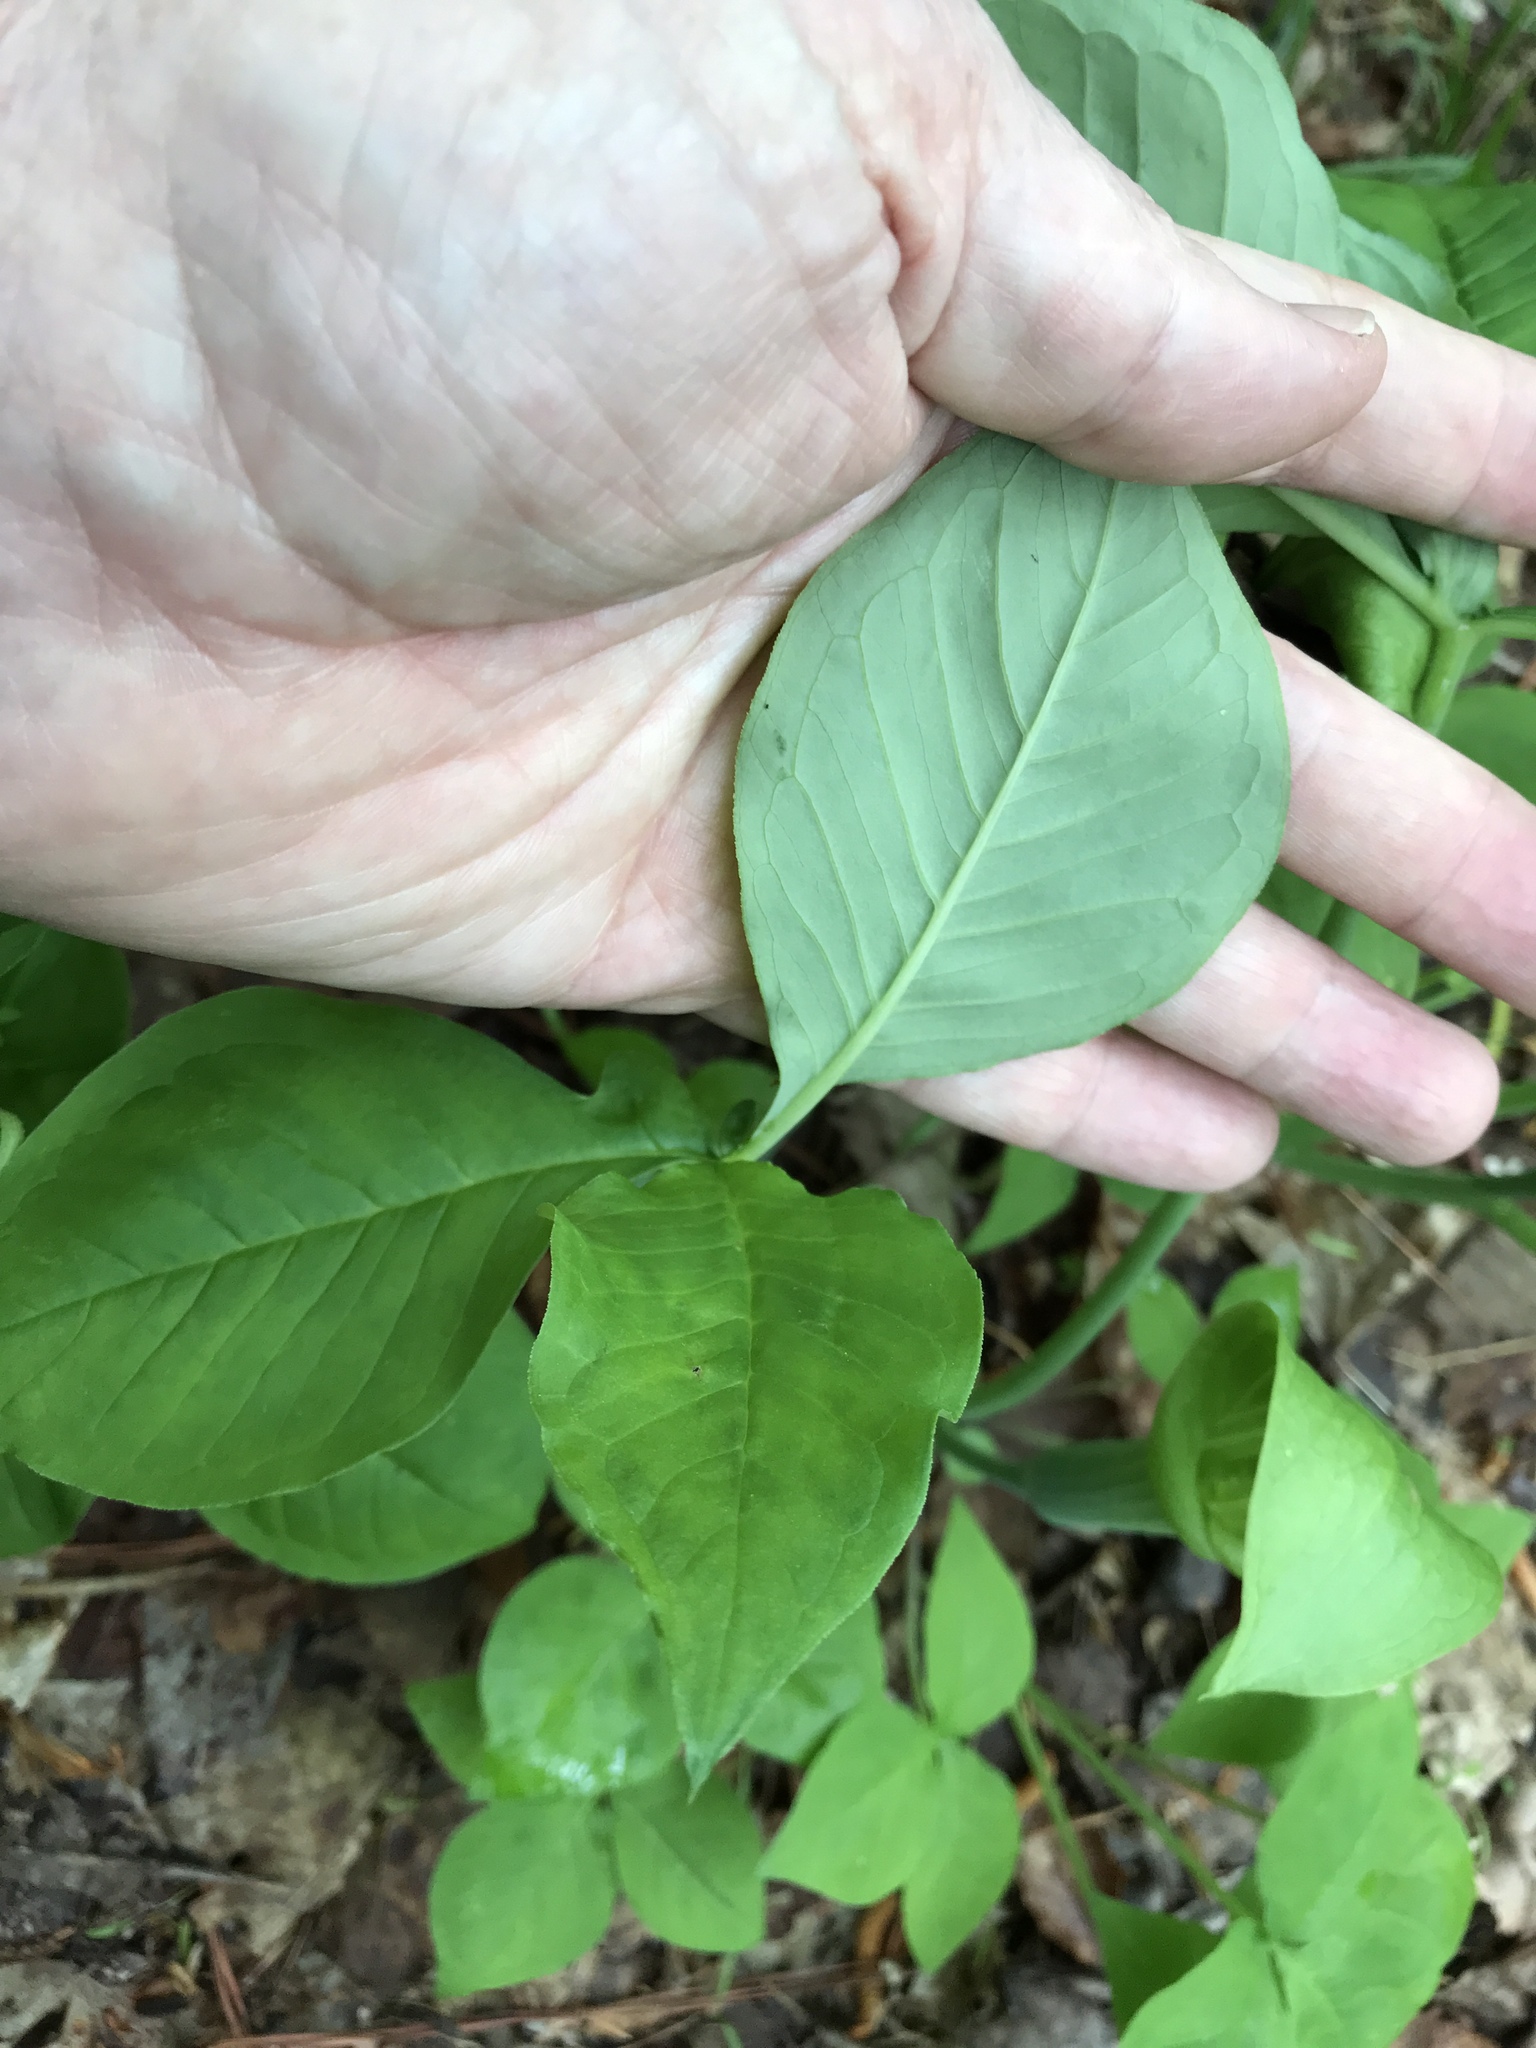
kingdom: Plantae
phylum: Tracheophyta
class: Liliopsida
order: Alismatales
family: Araceae
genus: Arisaema
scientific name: Arisaema triphyllum
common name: Jack-in-the-pulpit
